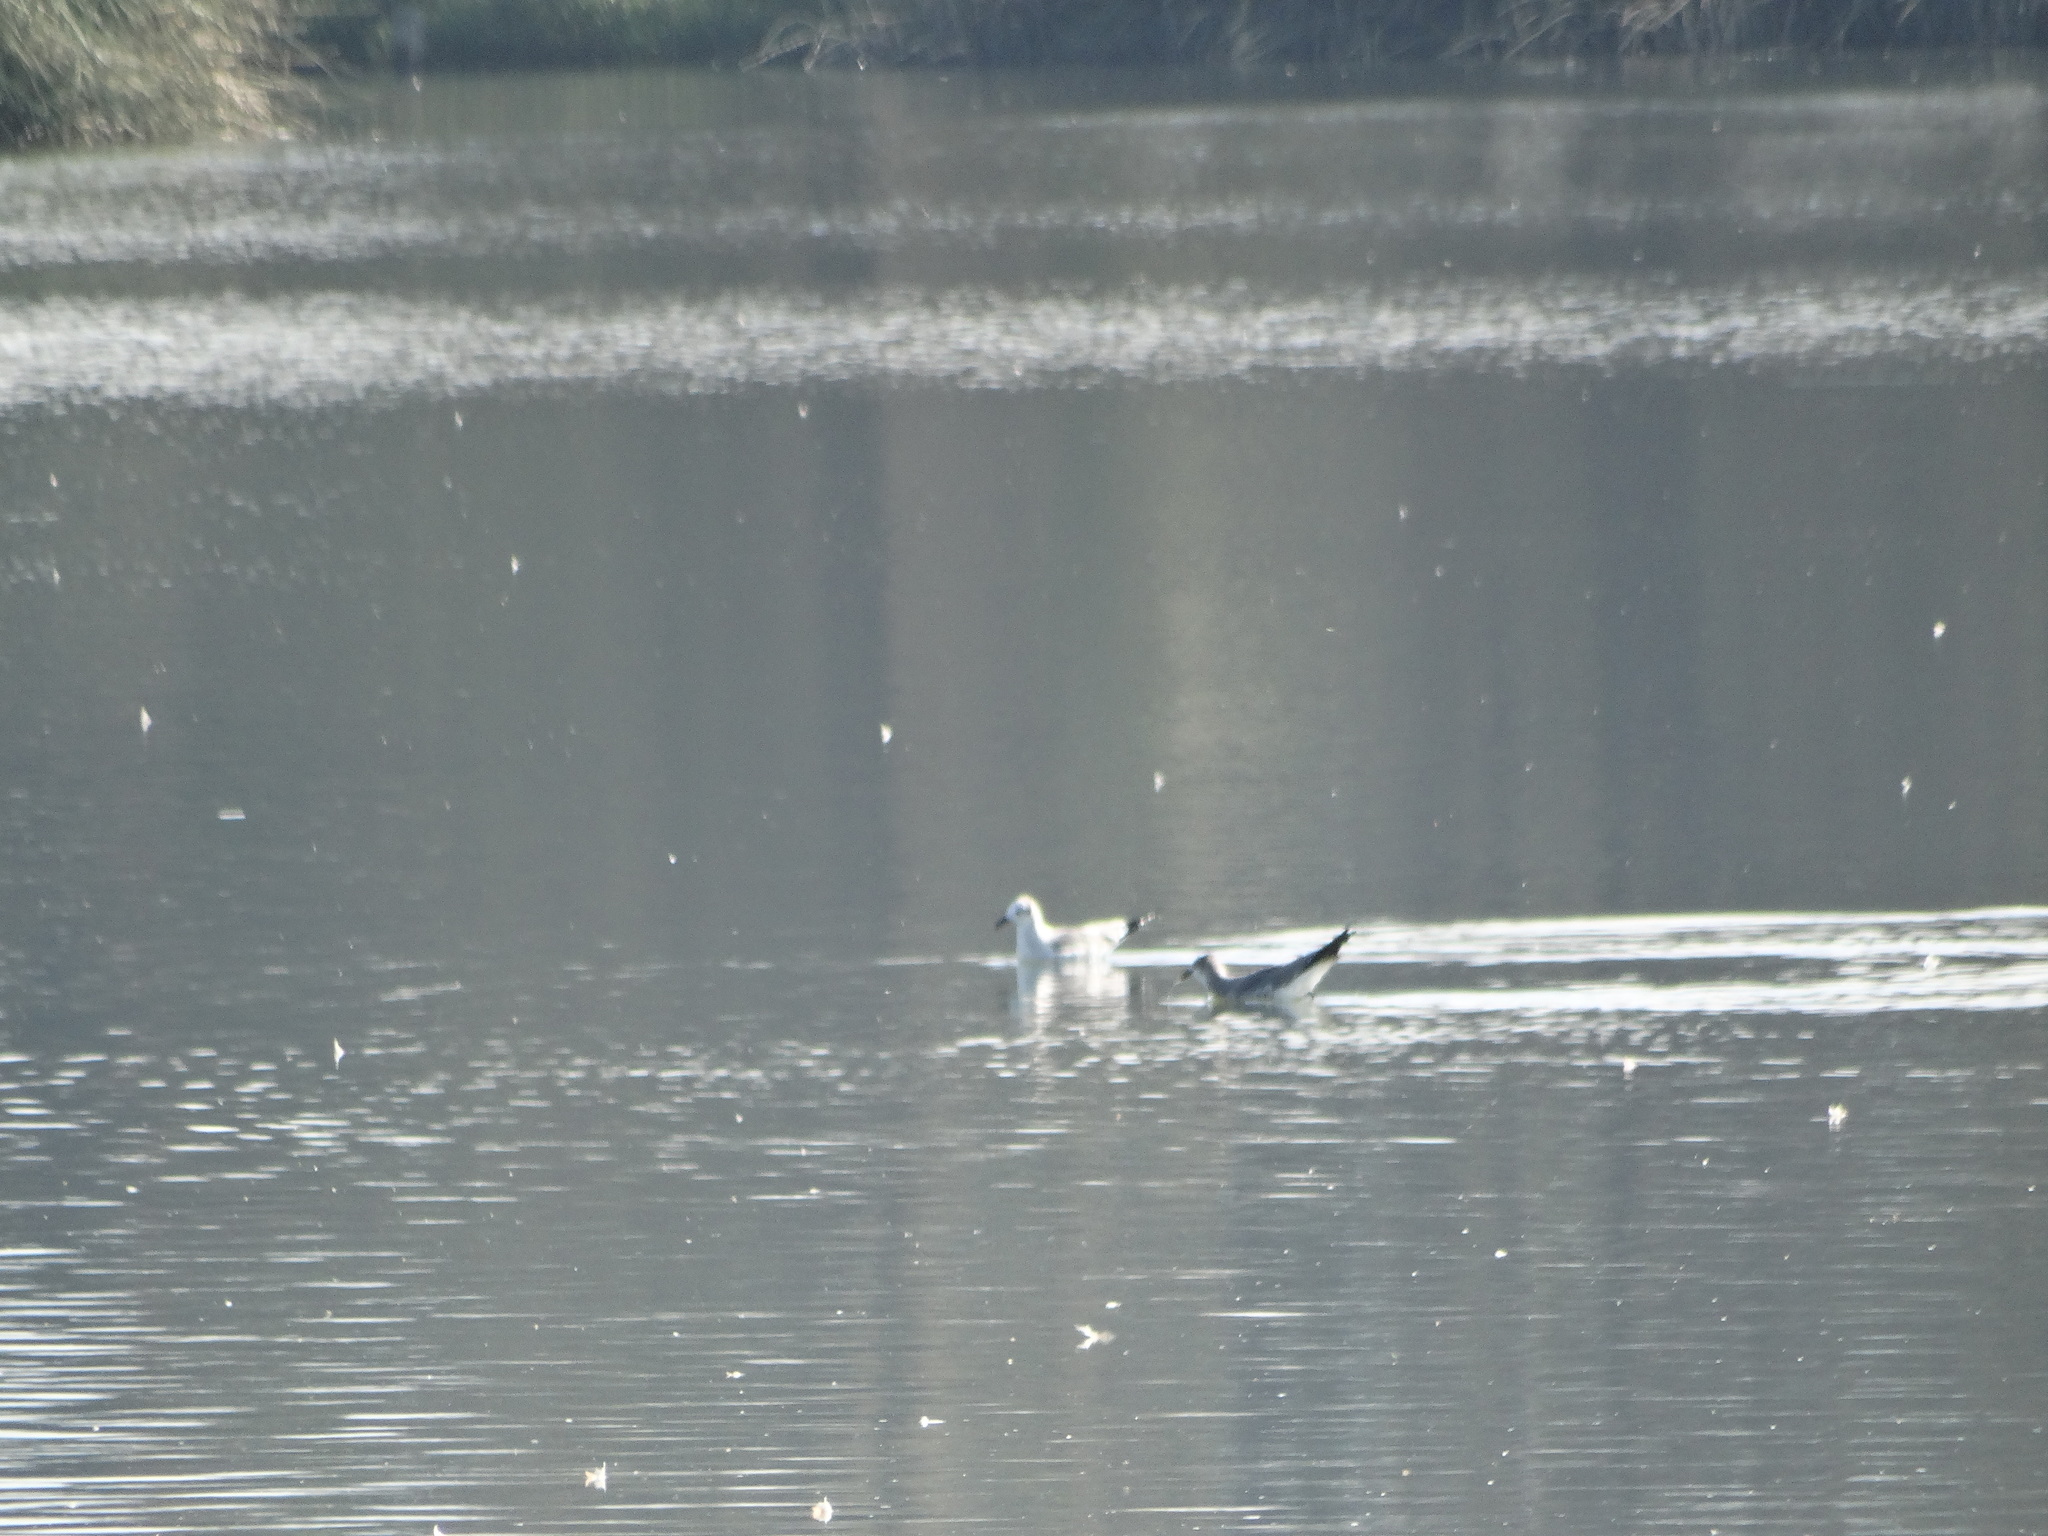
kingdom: Animalia
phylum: Chordata
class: Aves
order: Charadriiformes
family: Laridae
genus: Leucophaeus
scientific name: Leucophaeus atricilla
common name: Laughing gull
